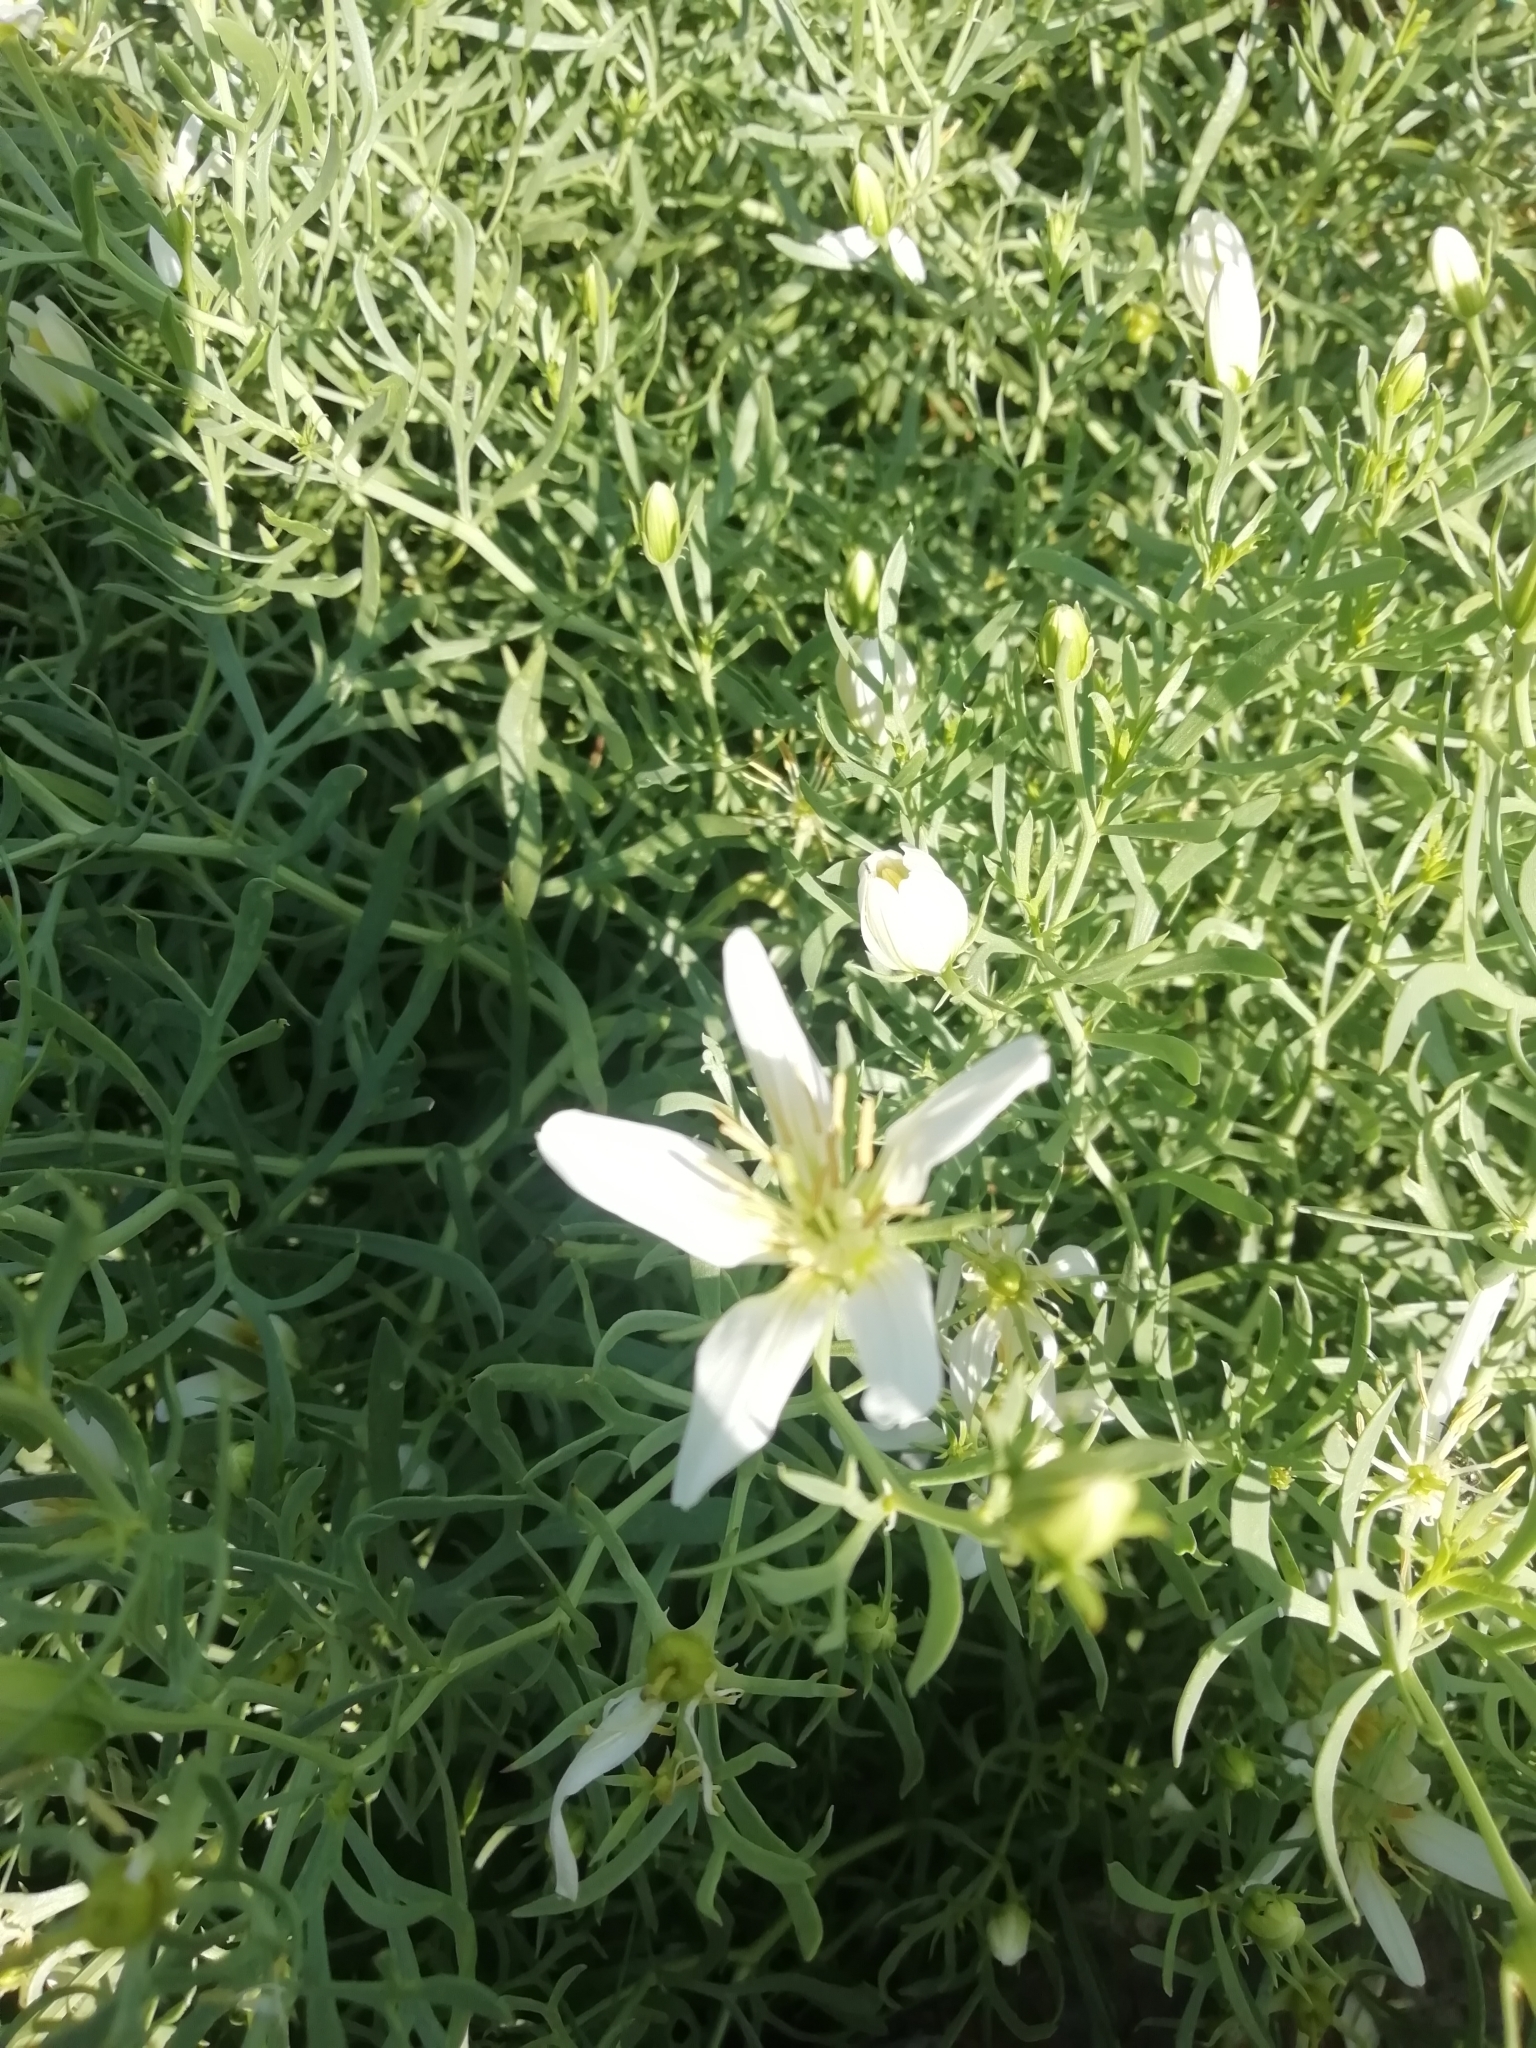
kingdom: Plantae
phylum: Tracheophyta
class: Magnoliopsida
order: Sapindales
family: Tetradiclidaceae
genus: Peganum
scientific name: Peganum harmala
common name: Harmal peganum
